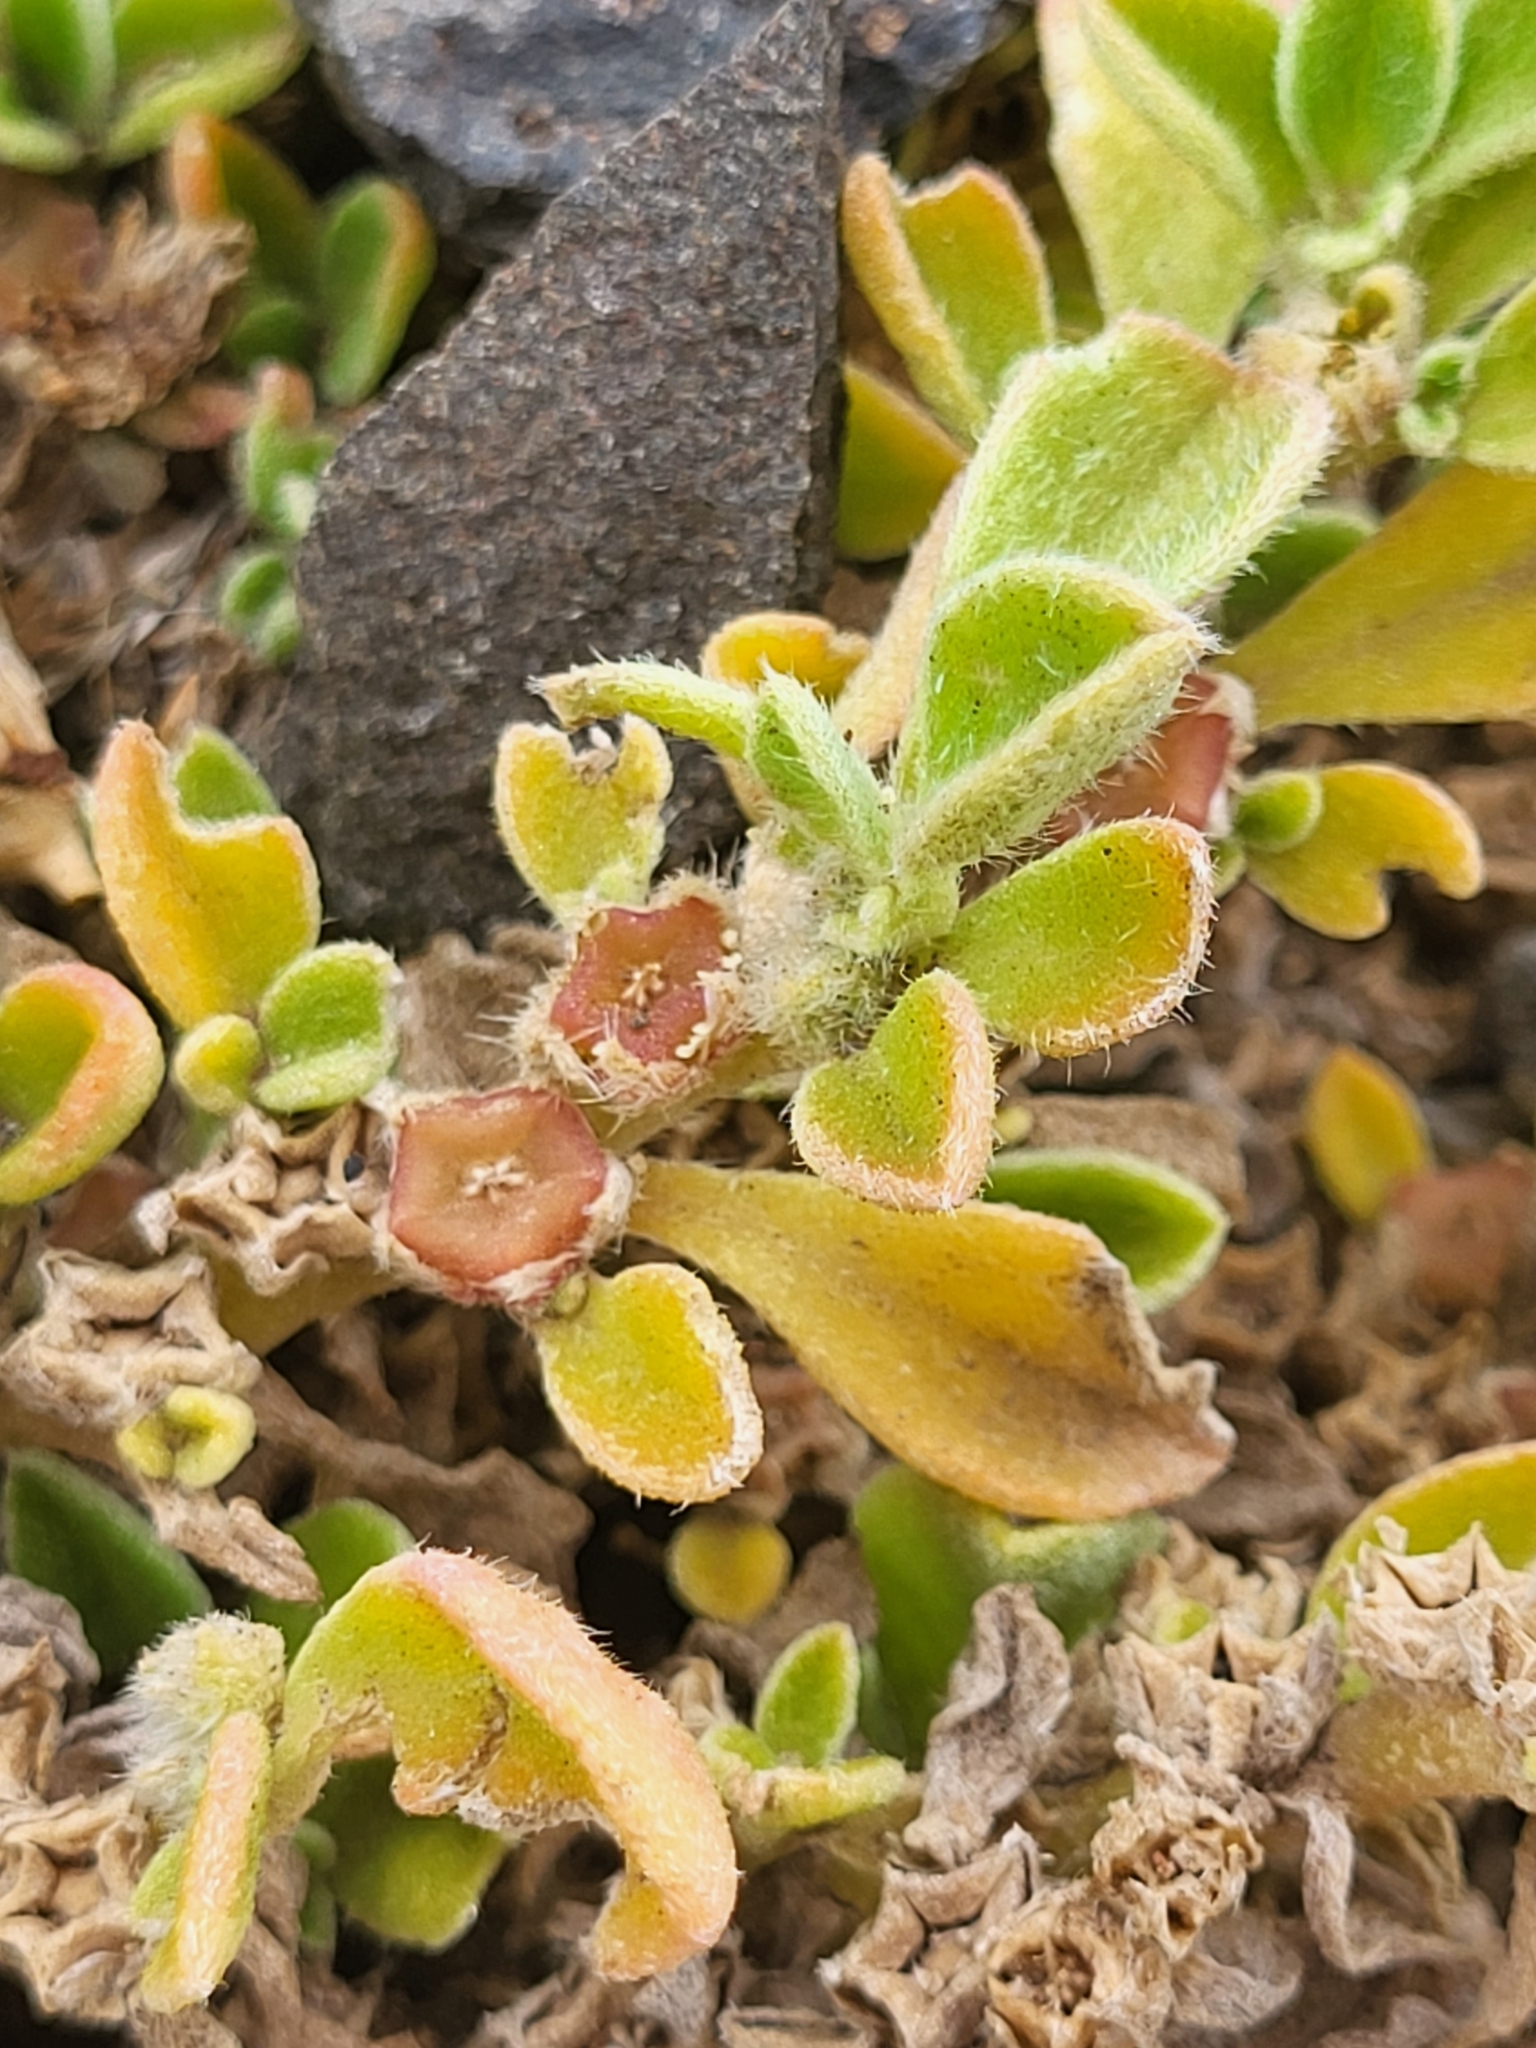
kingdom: Plantae
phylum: Tracheophyta
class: Magnoliopsida
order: Caryophyllales
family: Aizoaceae
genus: Aizoon
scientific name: Aizoon canariense
